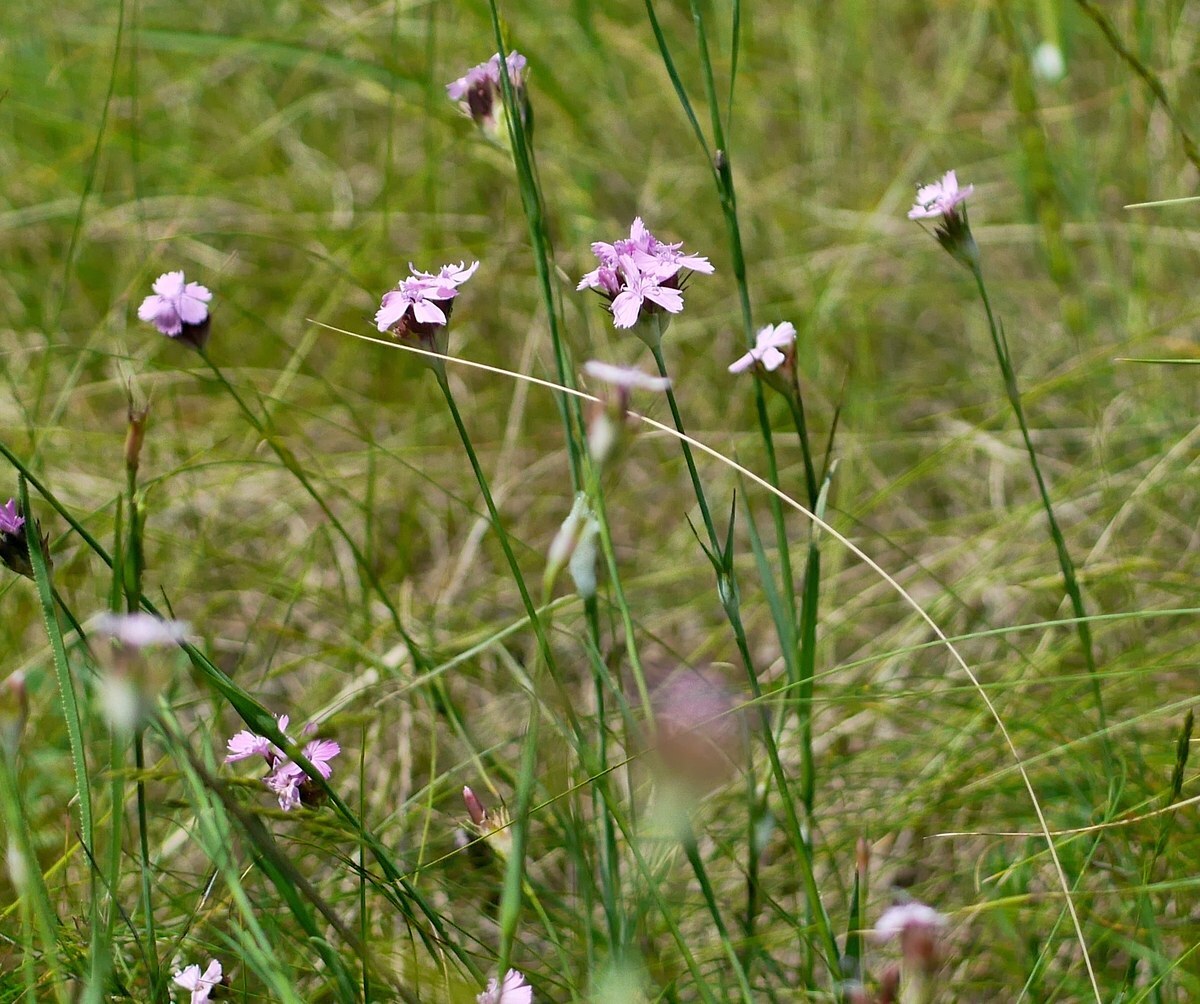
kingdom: Plantae
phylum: Tracheophyta
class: Magnoliopsida
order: Caryophyllales
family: Caryophyllaceae
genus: Dianthus
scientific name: Dianthus capitatus
